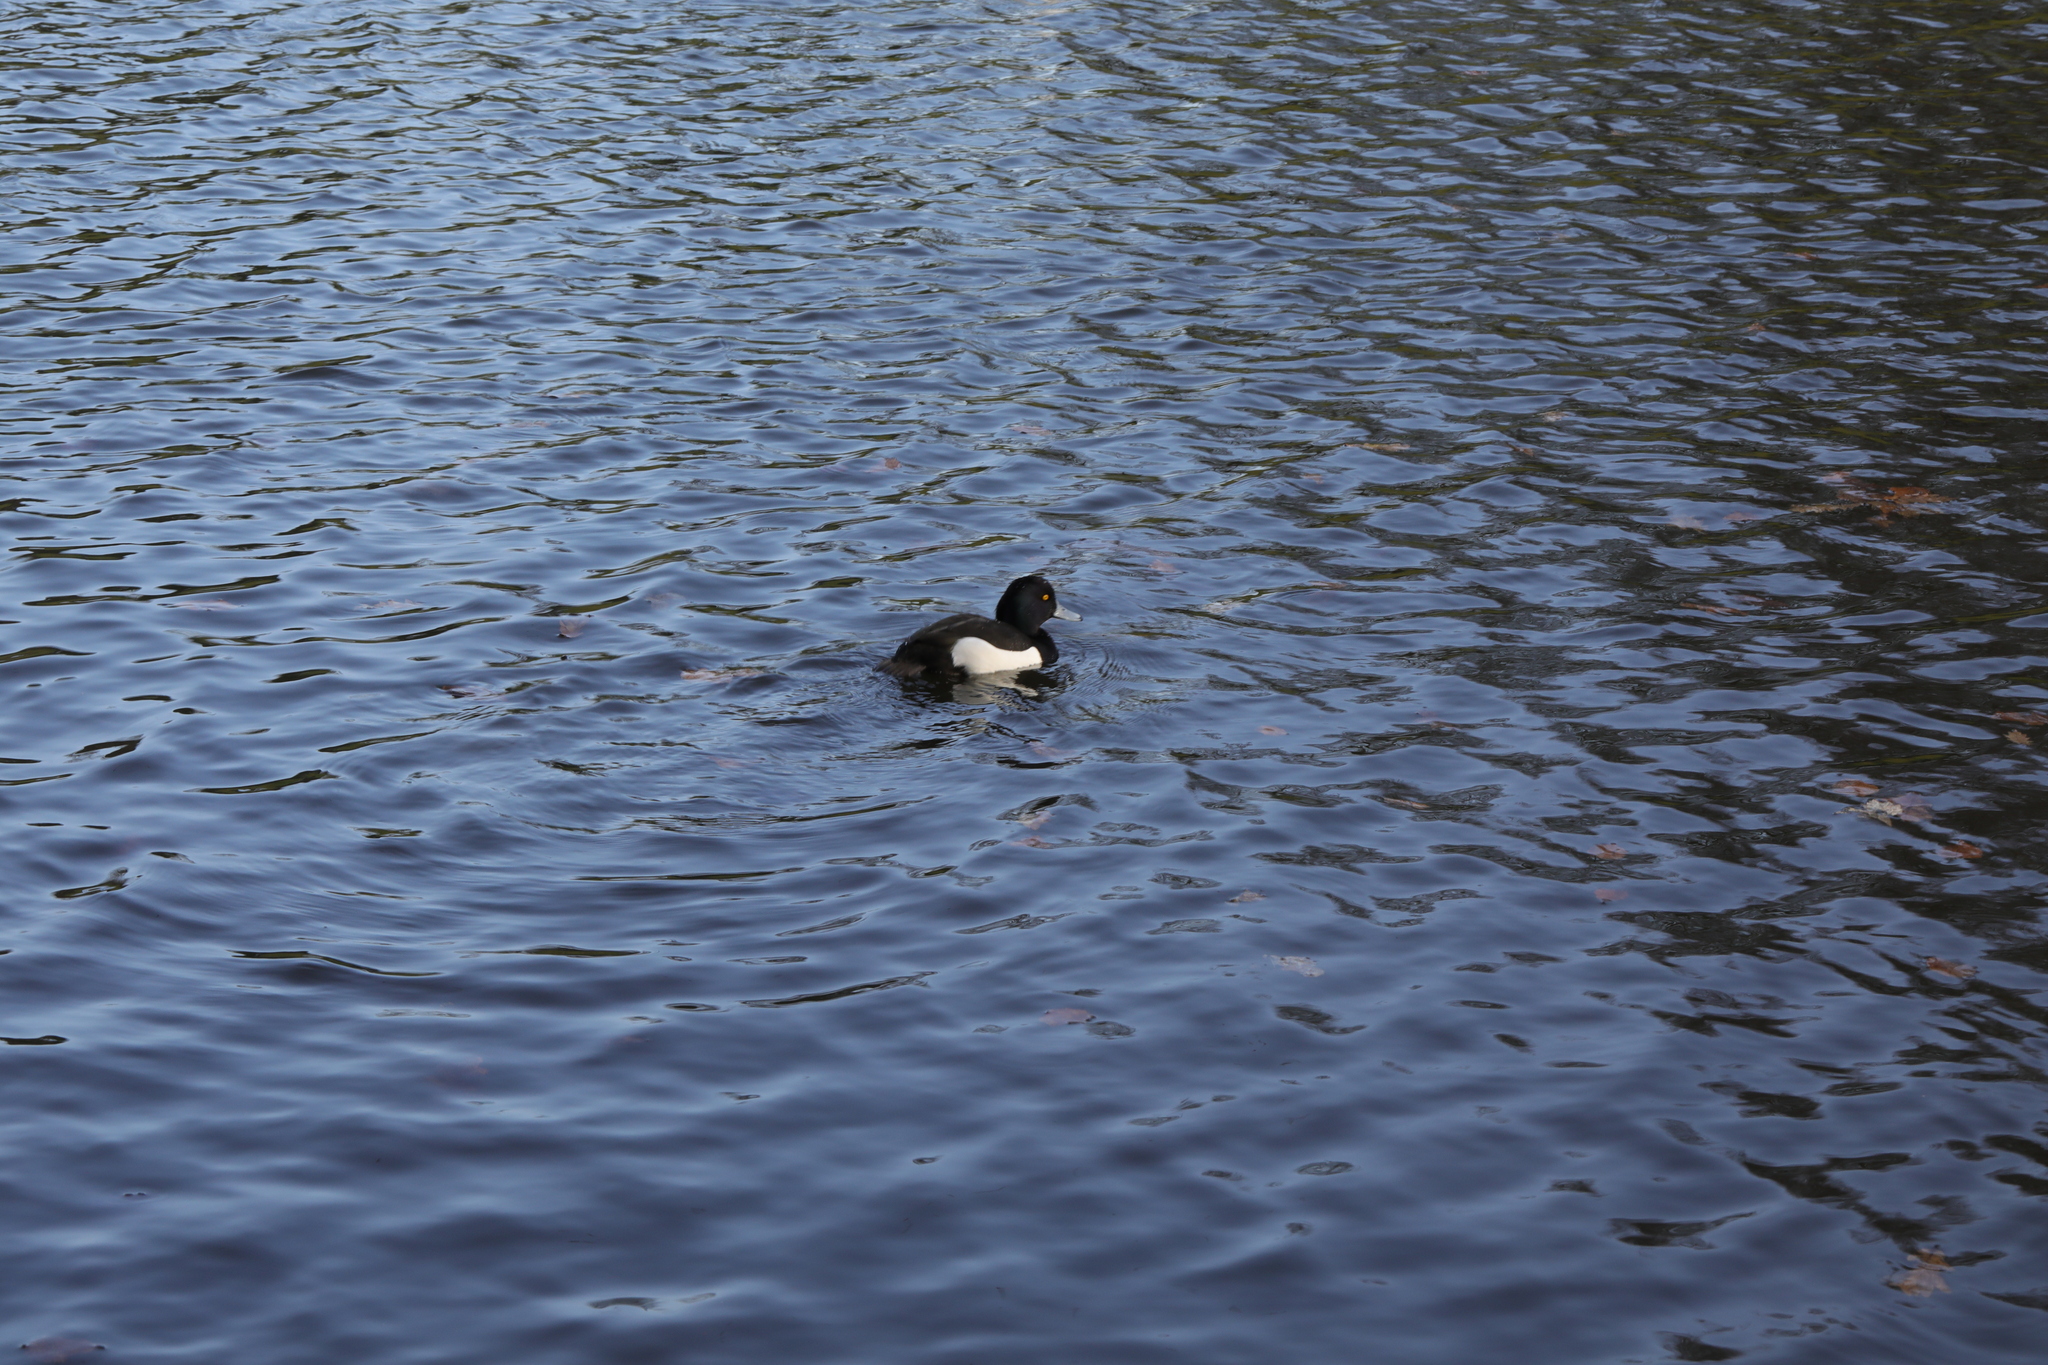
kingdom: Animalia
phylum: Chordata
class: Aves
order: Anseriformes
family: Anatidae
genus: Aythya
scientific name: Aythya fuligula
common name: Tufted duck
